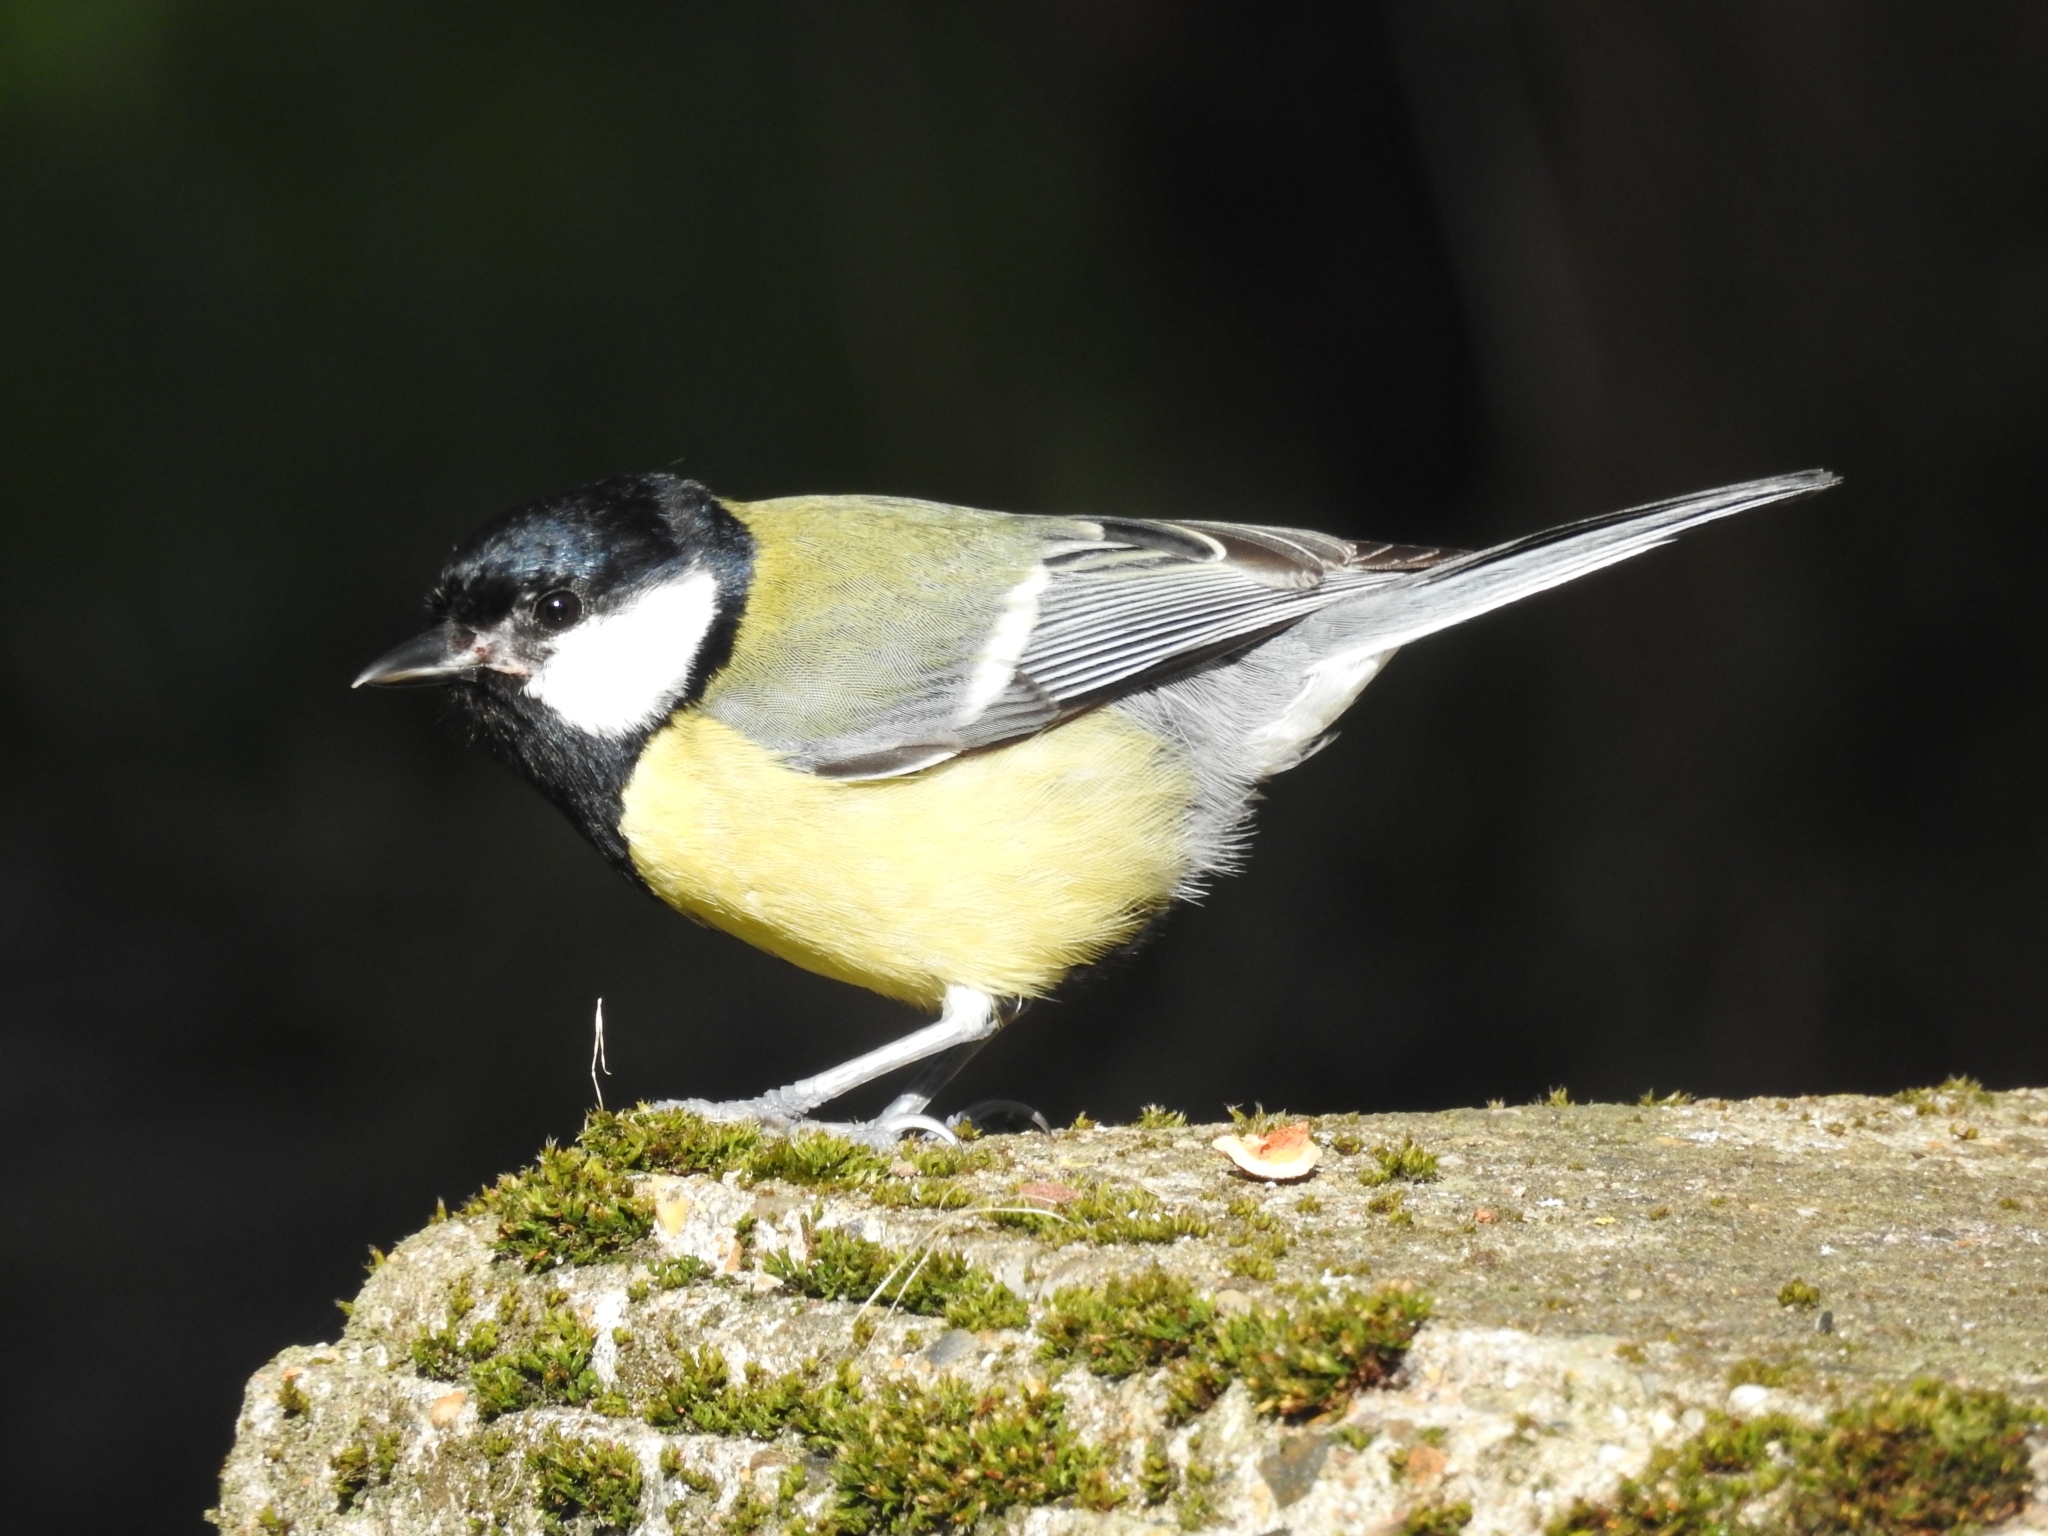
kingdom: Animalia
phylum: Chordata
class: Aves
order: Passeriformes
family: Paridae
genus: Parus
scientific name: Parus major
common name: Great tit
